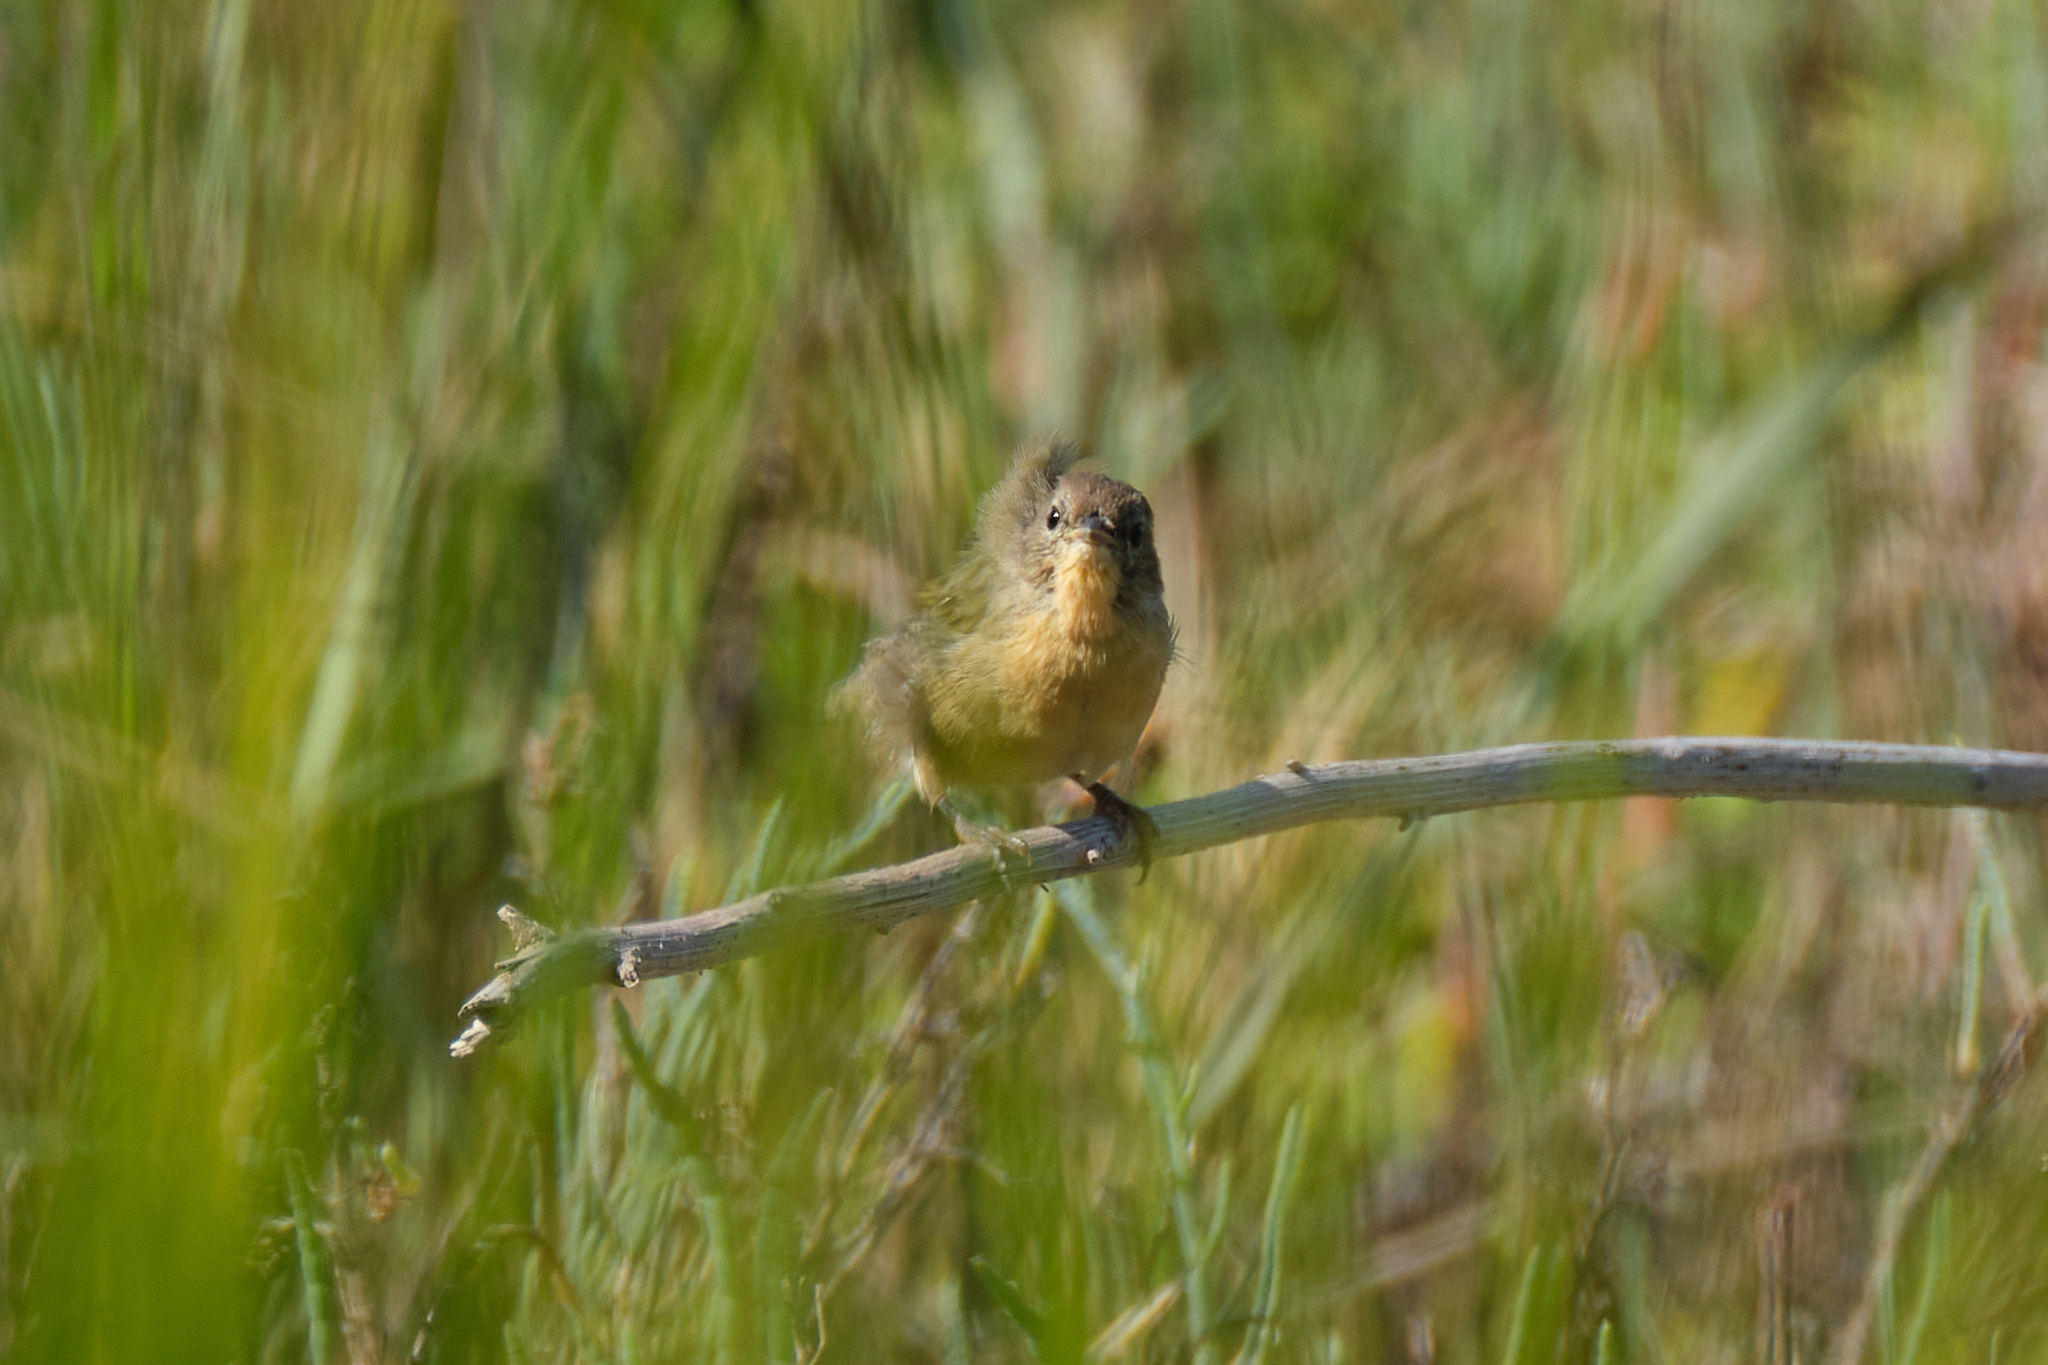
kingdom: Animalia
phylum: Chordata
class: Aves
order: Passeriformes
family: Parulidae
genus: Geothlypis
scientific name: Geothlypis trichas
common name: Common yellowthroat
